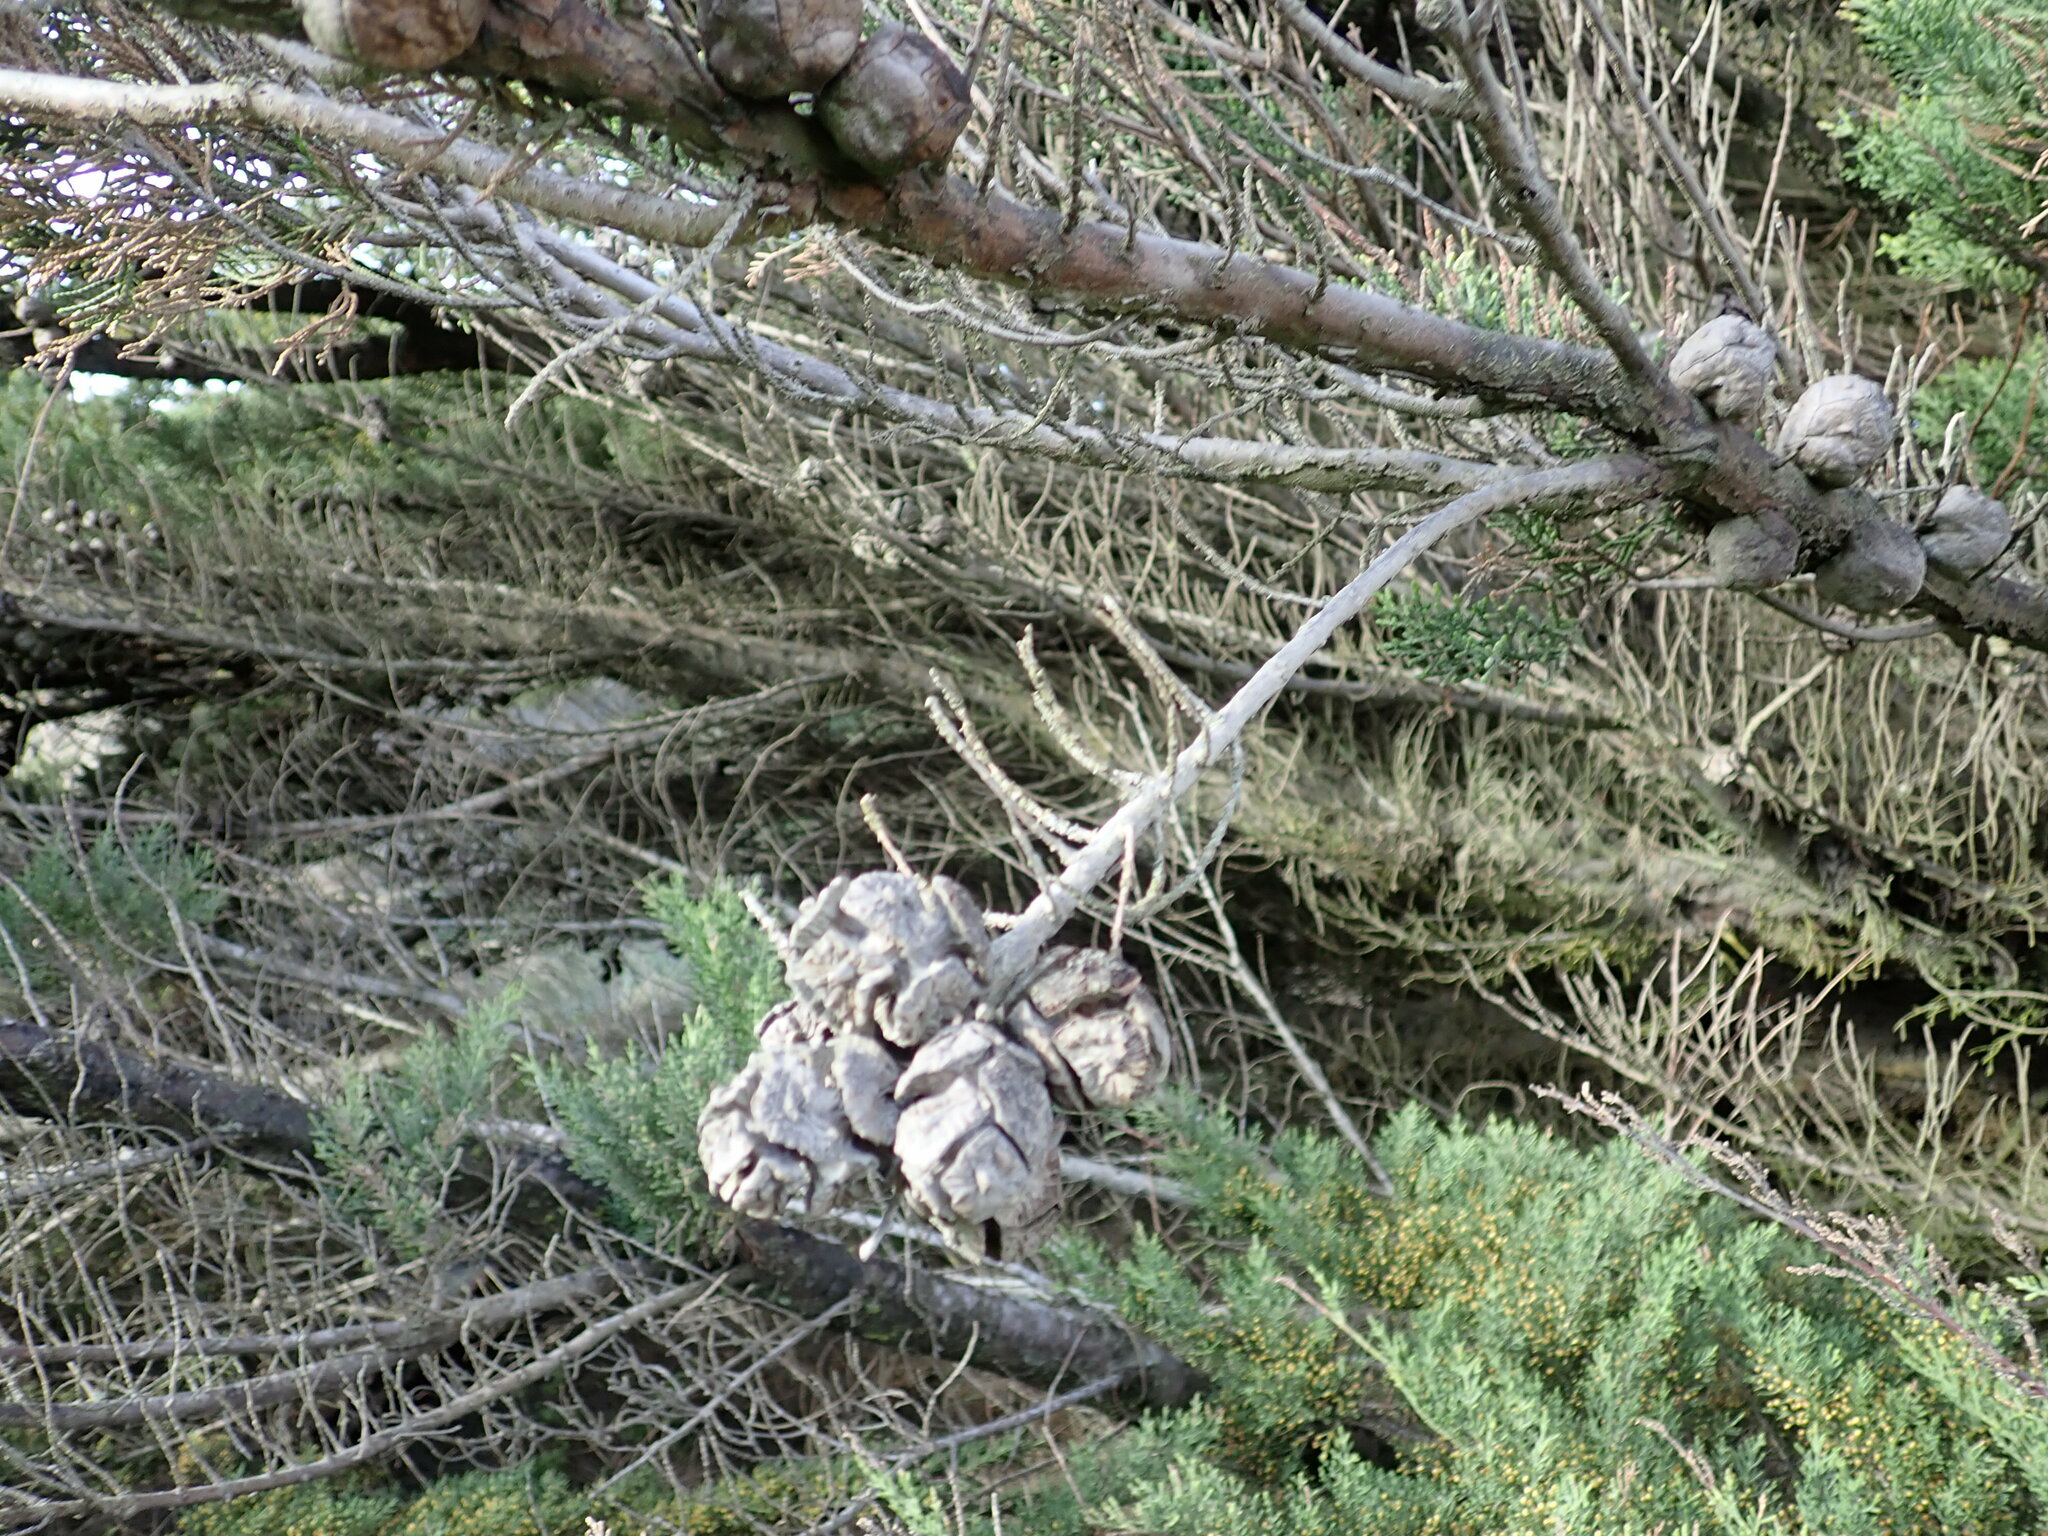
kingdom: Plantae
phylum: Tracheophyta
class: Pinopsida
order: Pinales
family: Cupressaceae
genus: Cupressus
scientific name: Cupressus macrocarpa
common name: Monterey cypress
